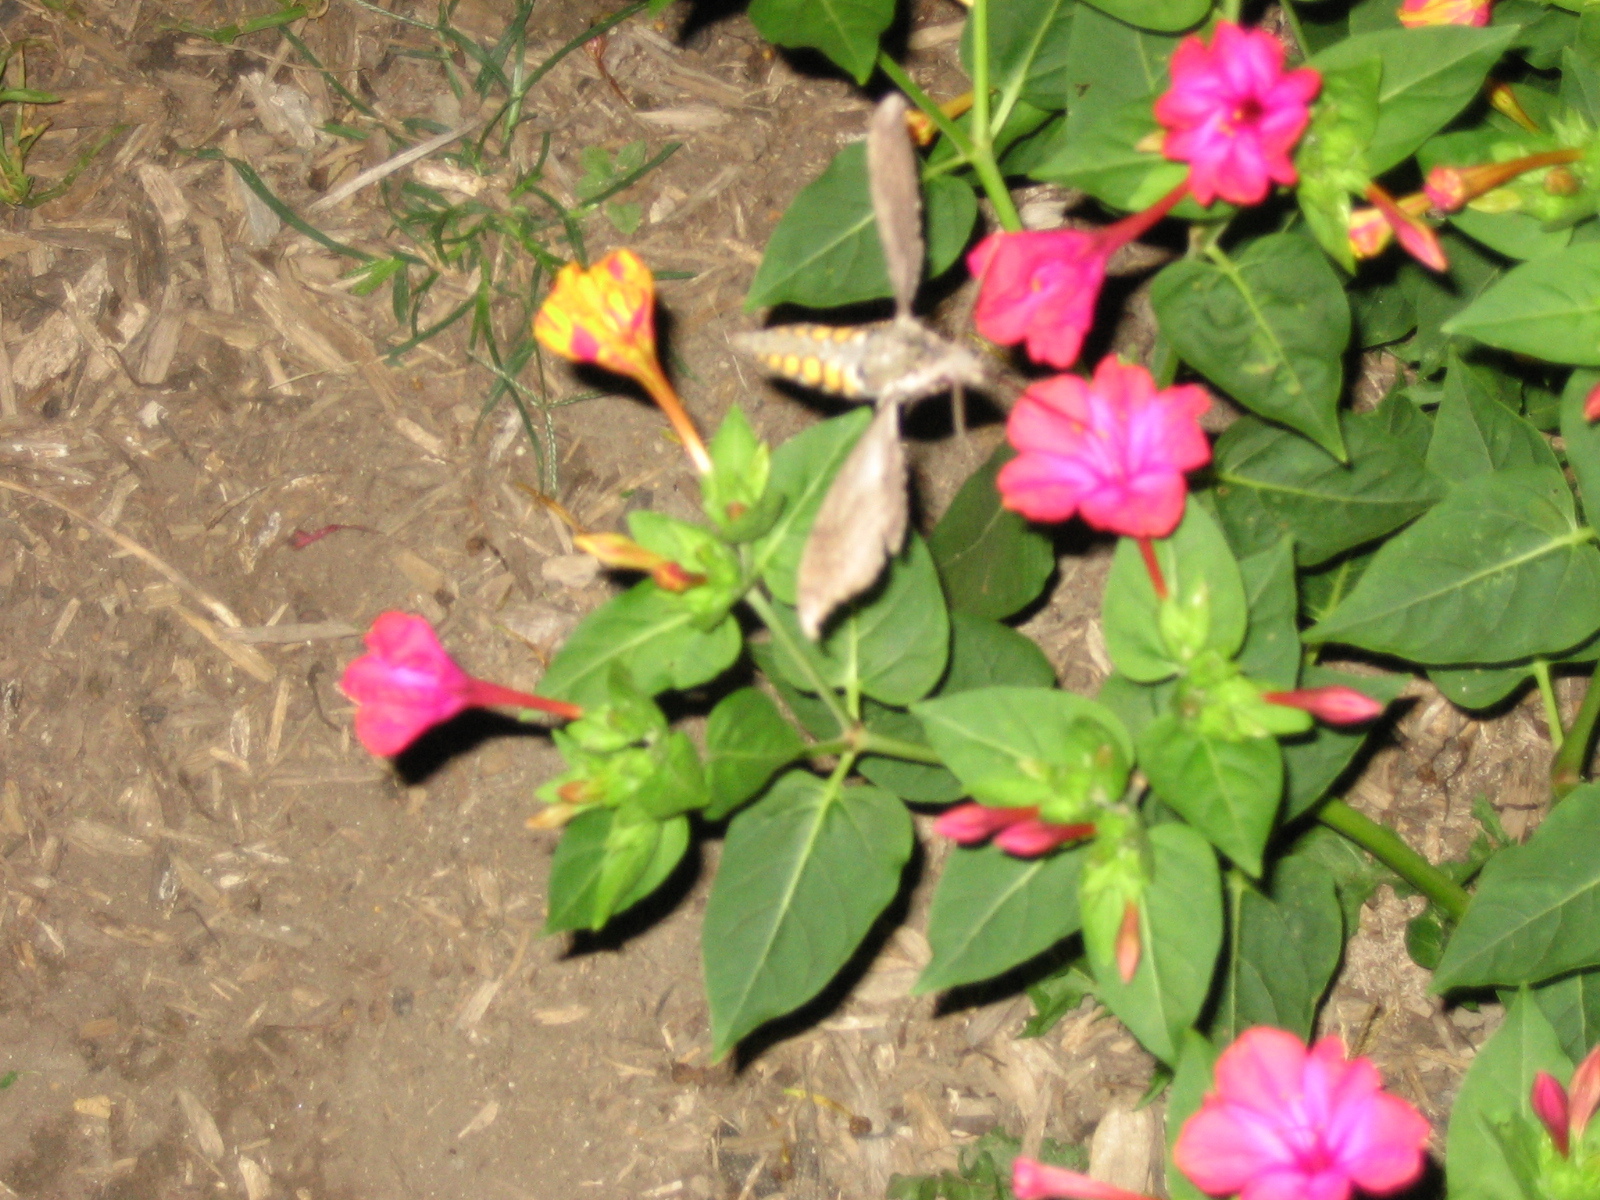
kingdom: Animalia
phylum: Arthropoda
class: Insecta
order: Lepidoptera
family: Sphingidae
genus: Manduca
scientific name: Manduca sexta
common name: Carolina sphinx
